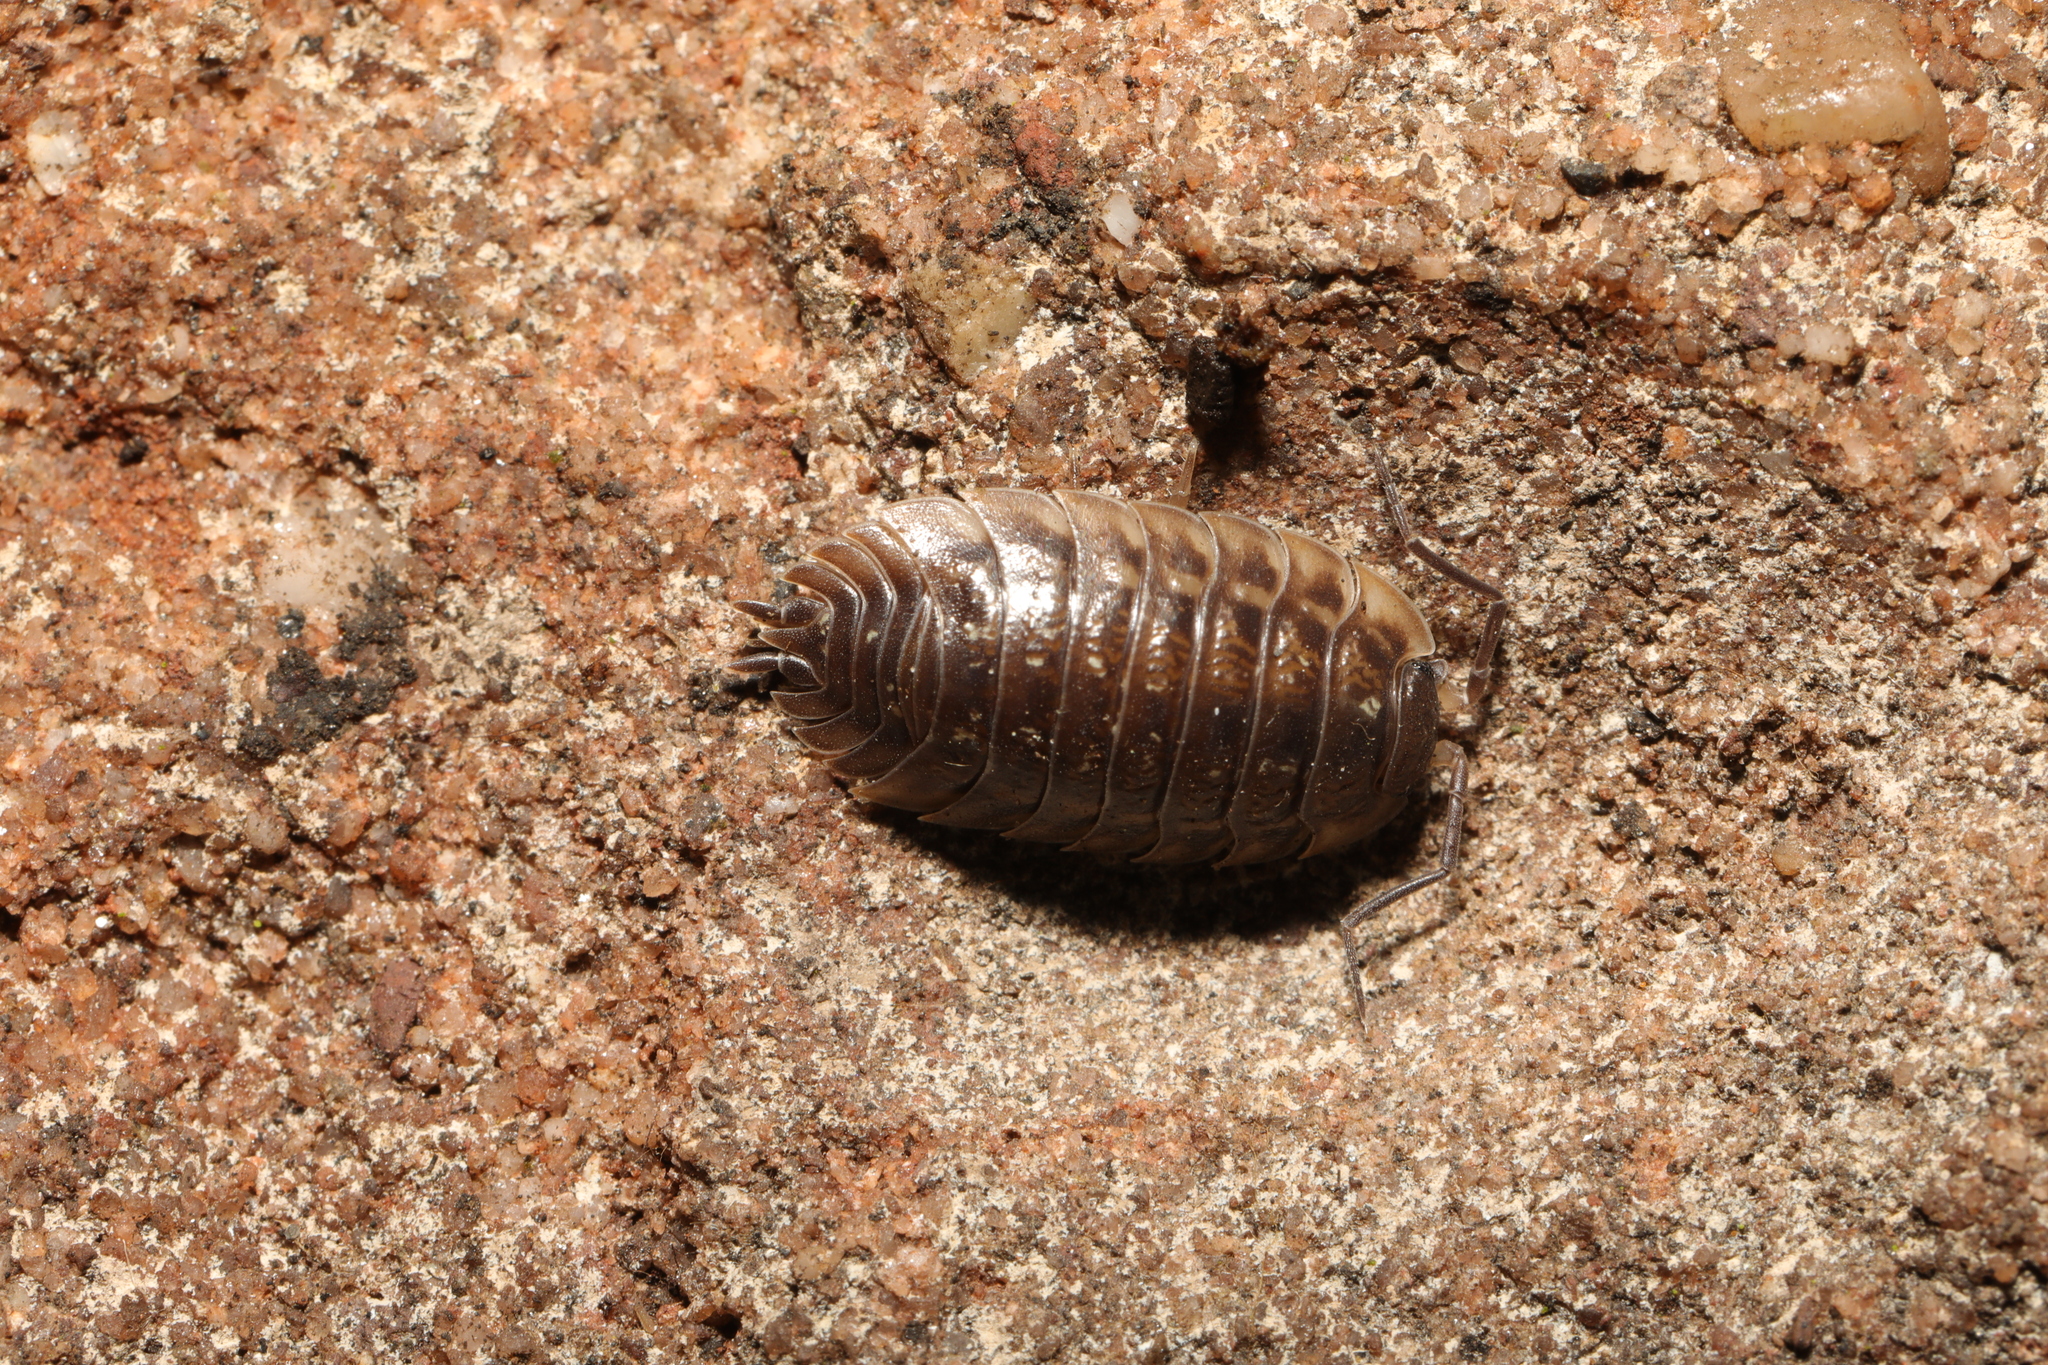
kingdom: Animalia
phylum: Arthropoda
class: Malacostraca
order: Isopoda
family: Oniscidae
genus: Oniscus
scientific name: Oniscus asellus
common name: Common shiny woodlouse
